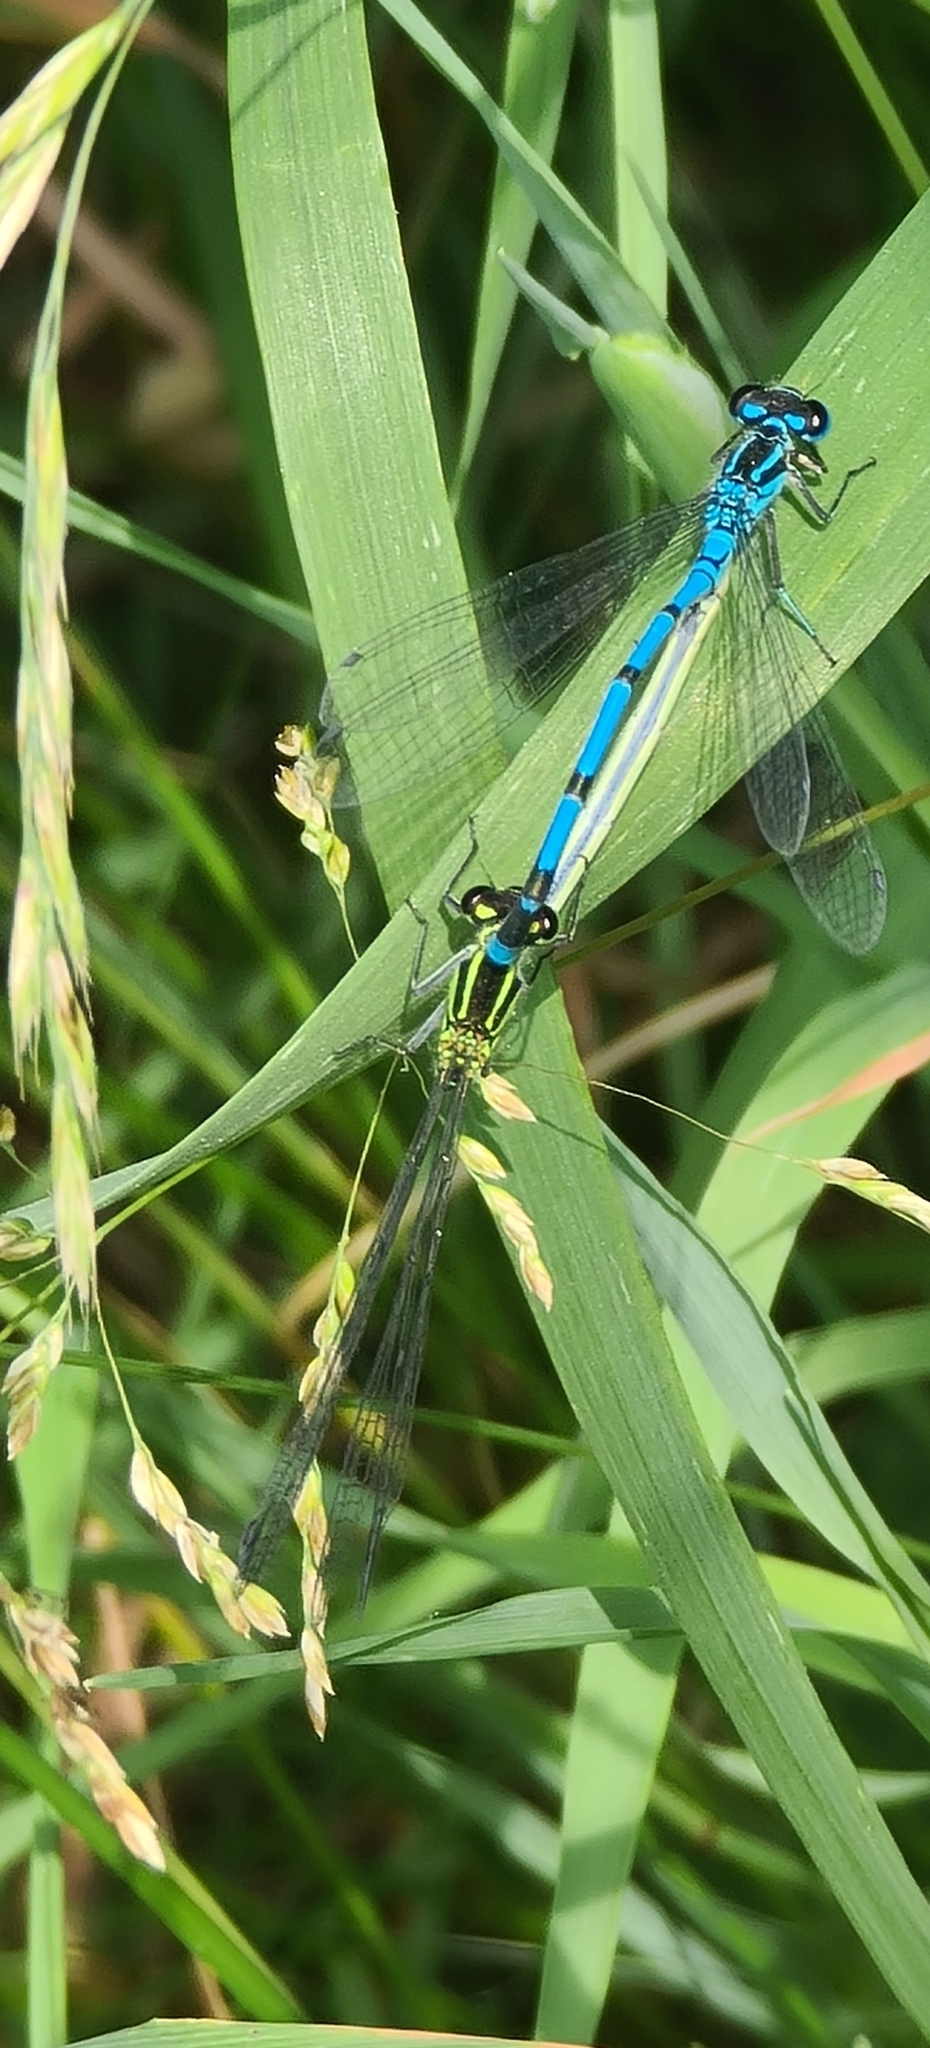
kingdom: Animalia
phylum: Arthropoda
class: Insecta
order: Odonata
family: Coenagrionidae
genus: Coenagrion
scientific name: Coenagrion puella
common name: Azure damselfly
